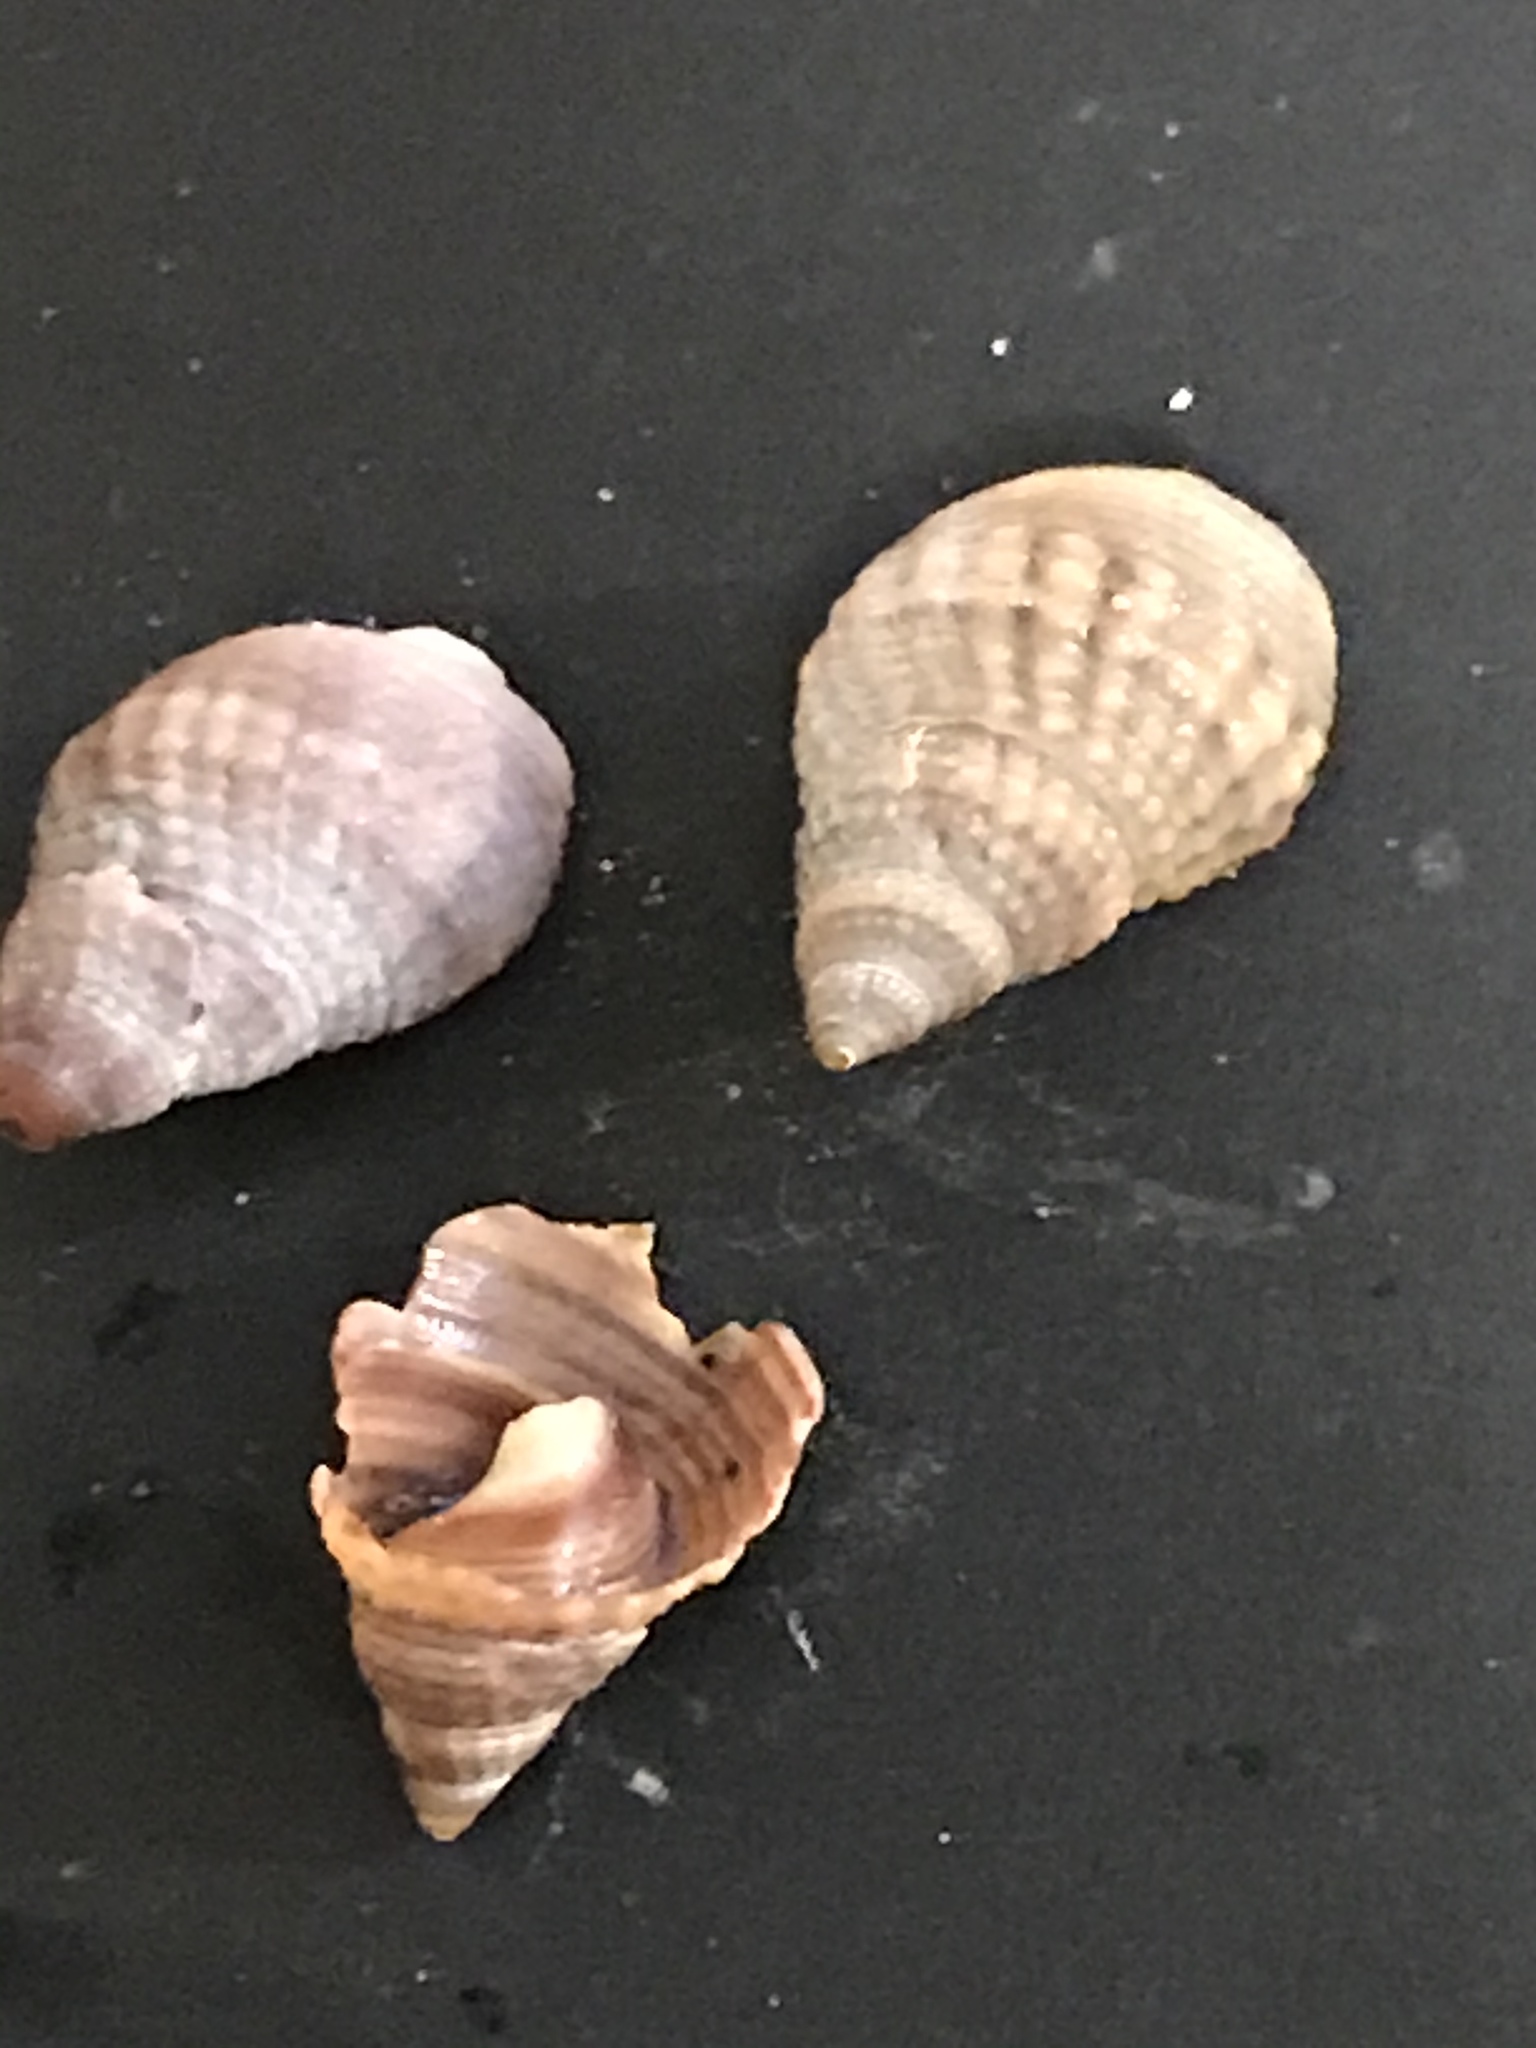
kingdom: Animalia
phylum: Mollusca
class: Gastropoda
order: Neogastropoda
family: Nassariidae
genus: Caesia
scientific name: Caesia fossata
